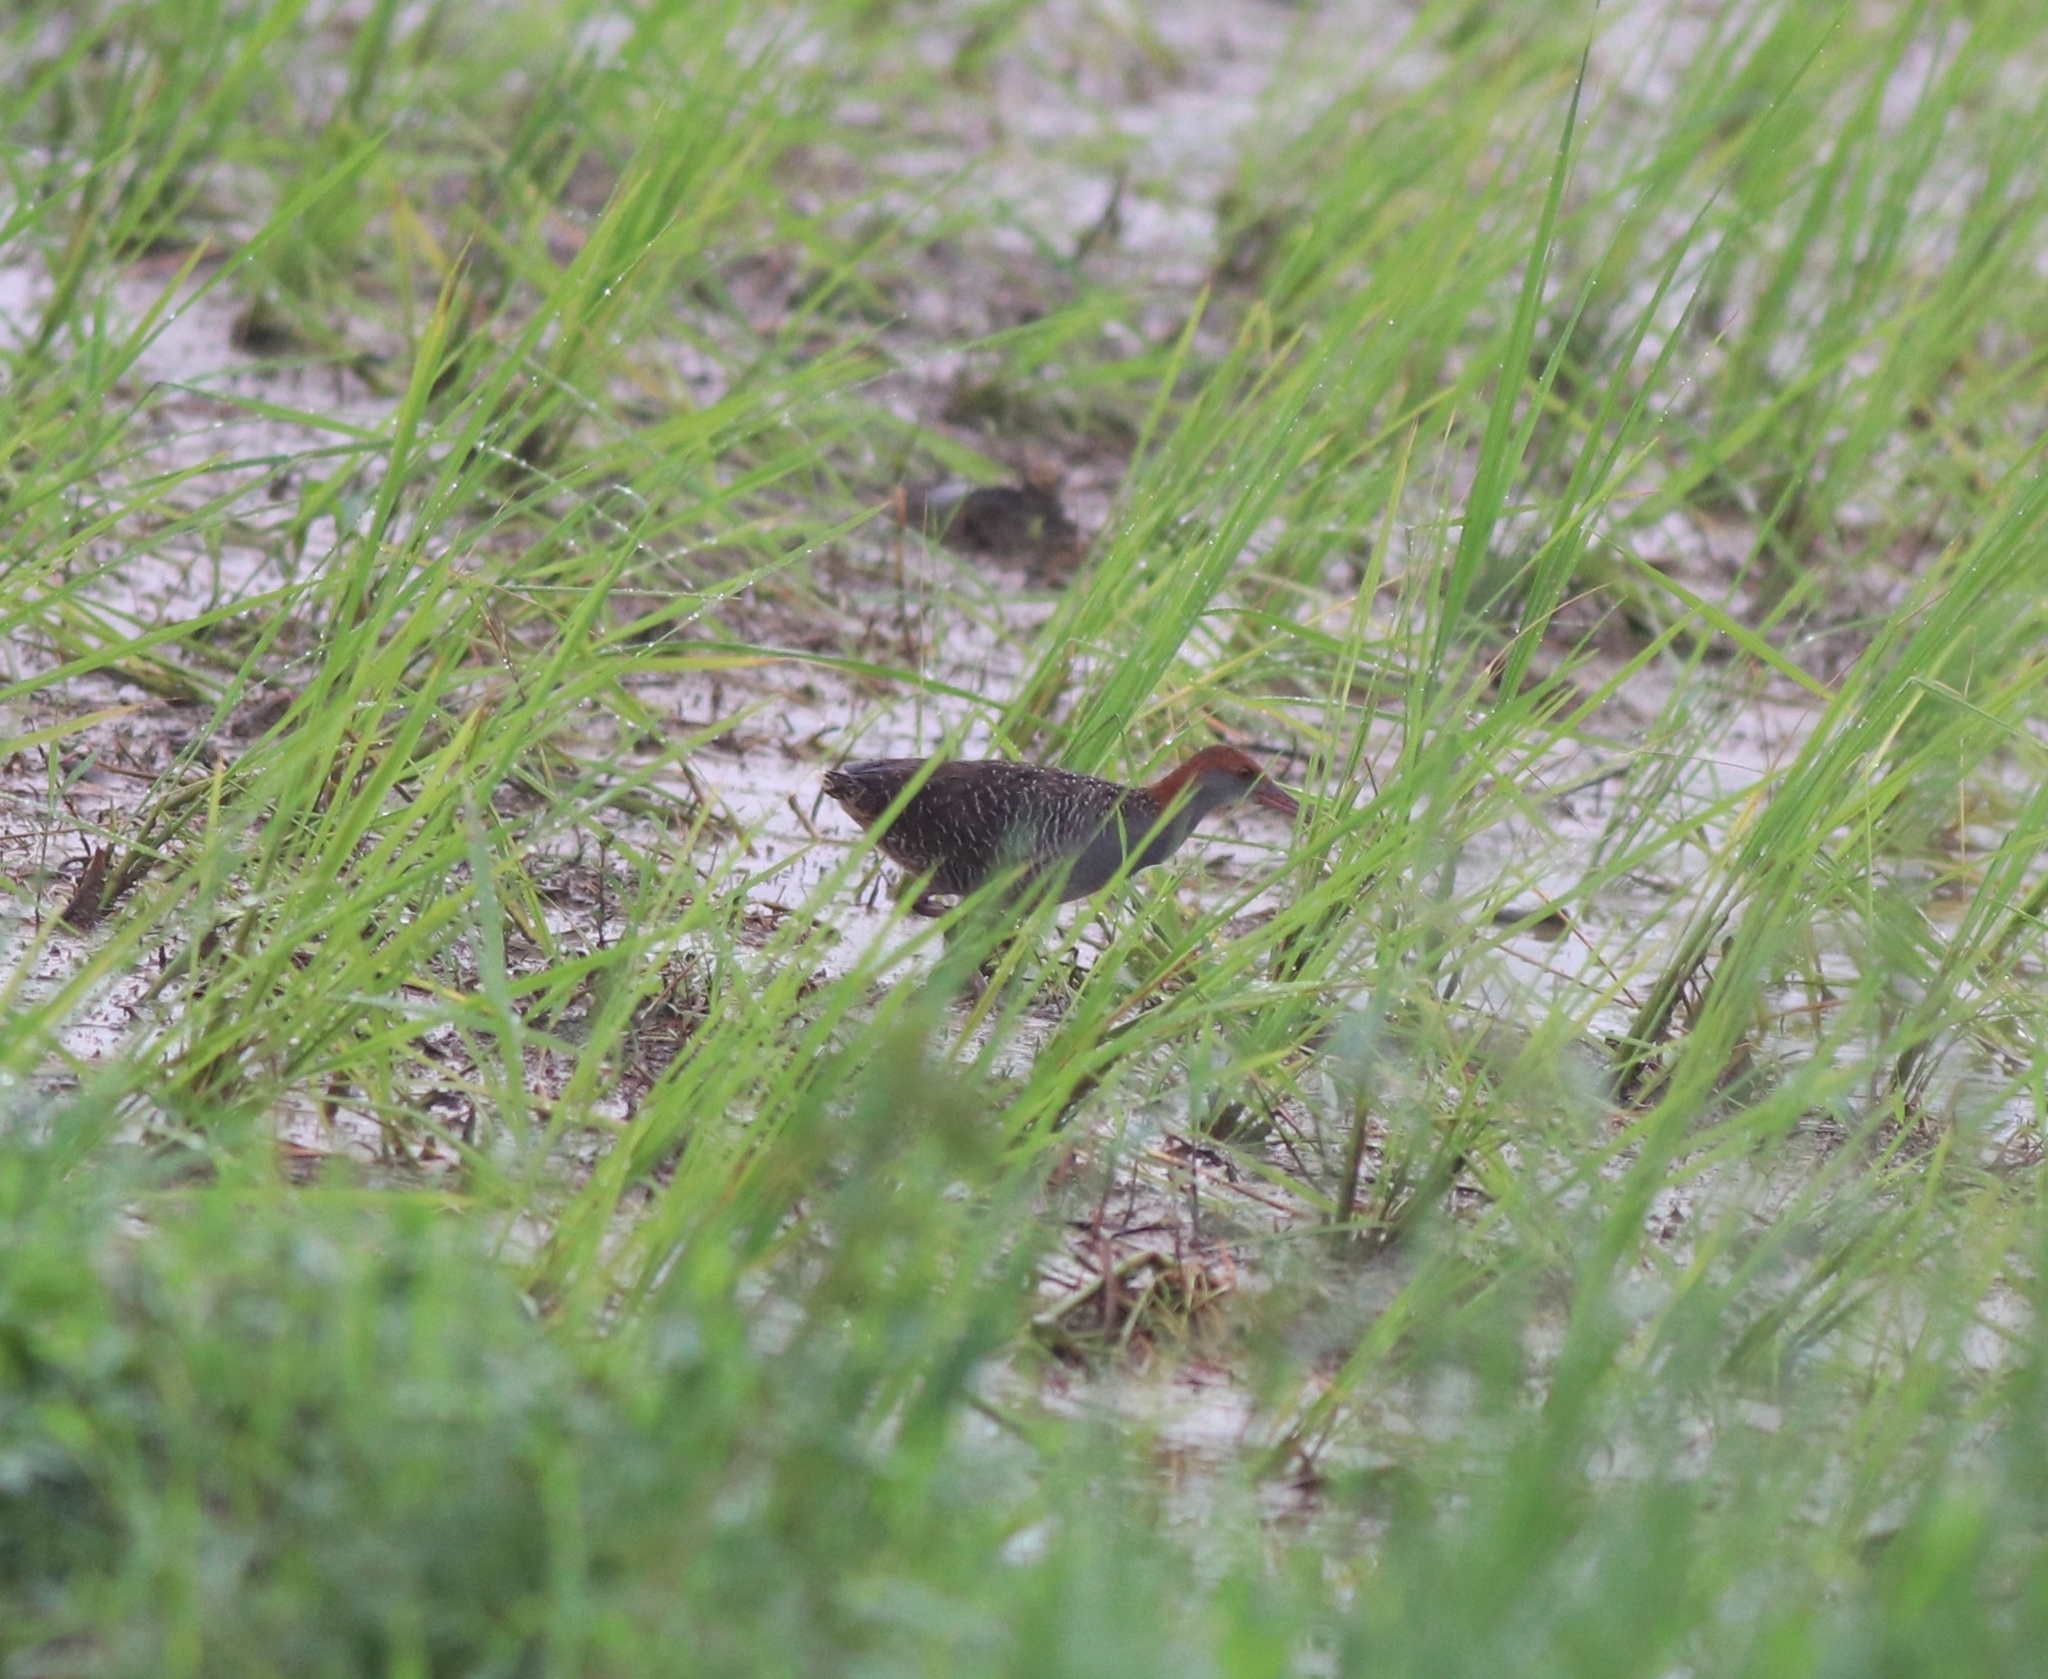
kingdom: Animalia
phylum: Chordata
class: Aves
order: Gruiformes
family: Rallidae
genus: Gallirallus
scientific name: Gallirallus striatus
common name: Slaty-breasted rail
